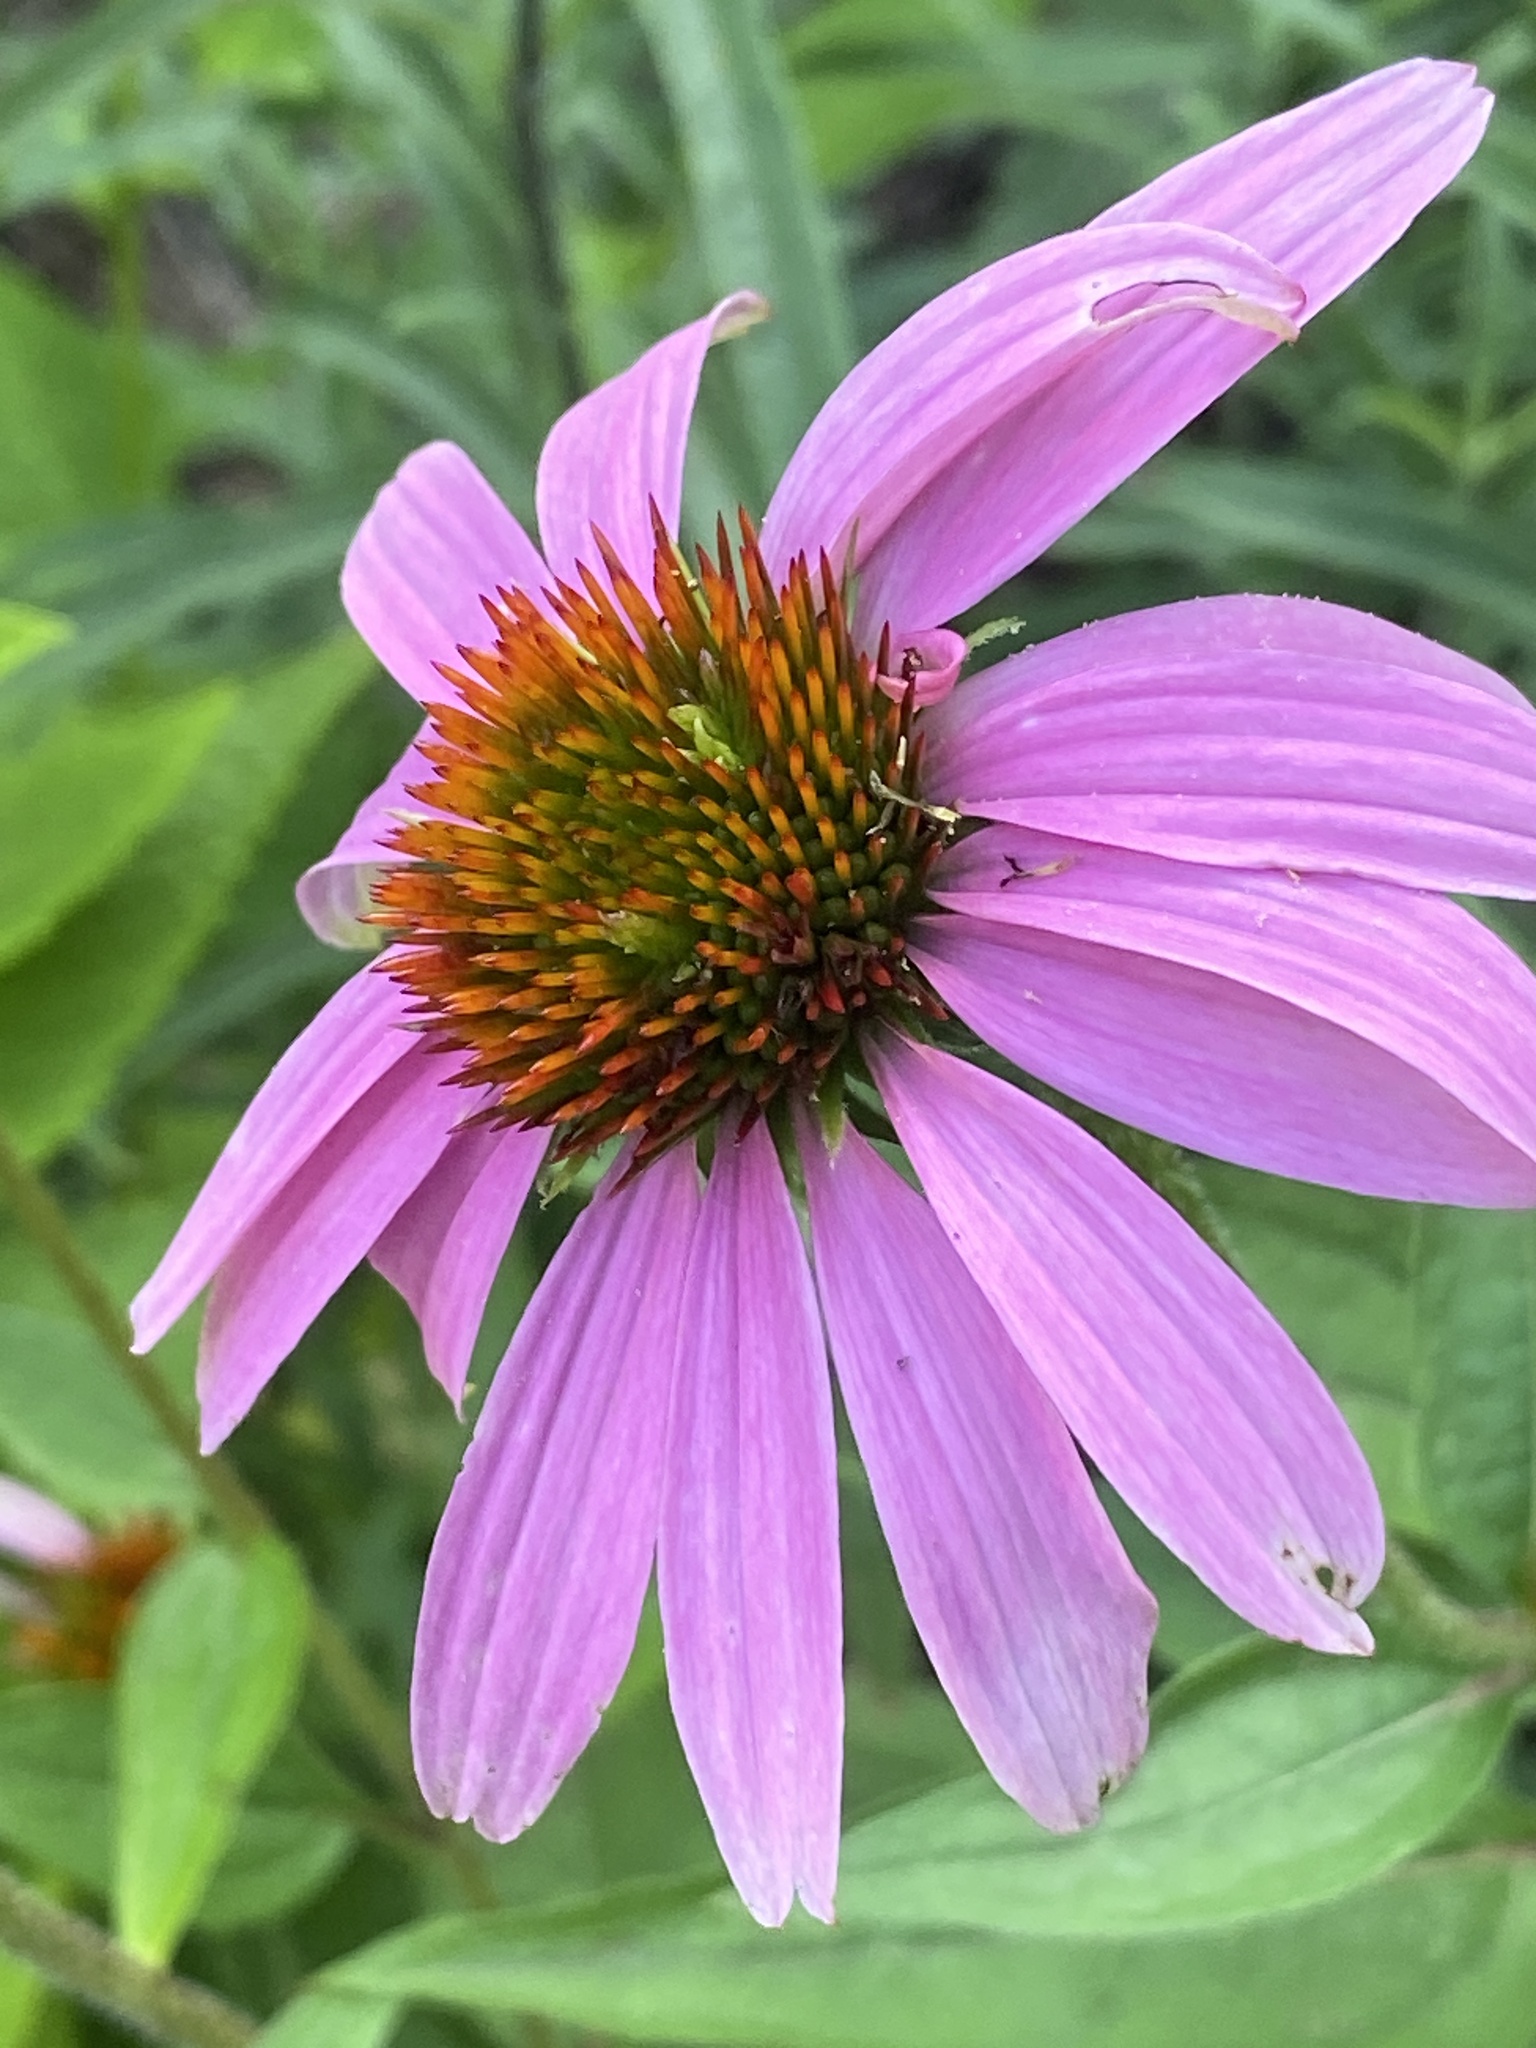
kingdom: Plantae
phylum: Tracheophyta
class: Magnoliopsida
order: Asterales
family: Asteraceae
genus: Echinacea
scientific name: Echinacea purpurea
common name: Broad-leaved purple coneflower
